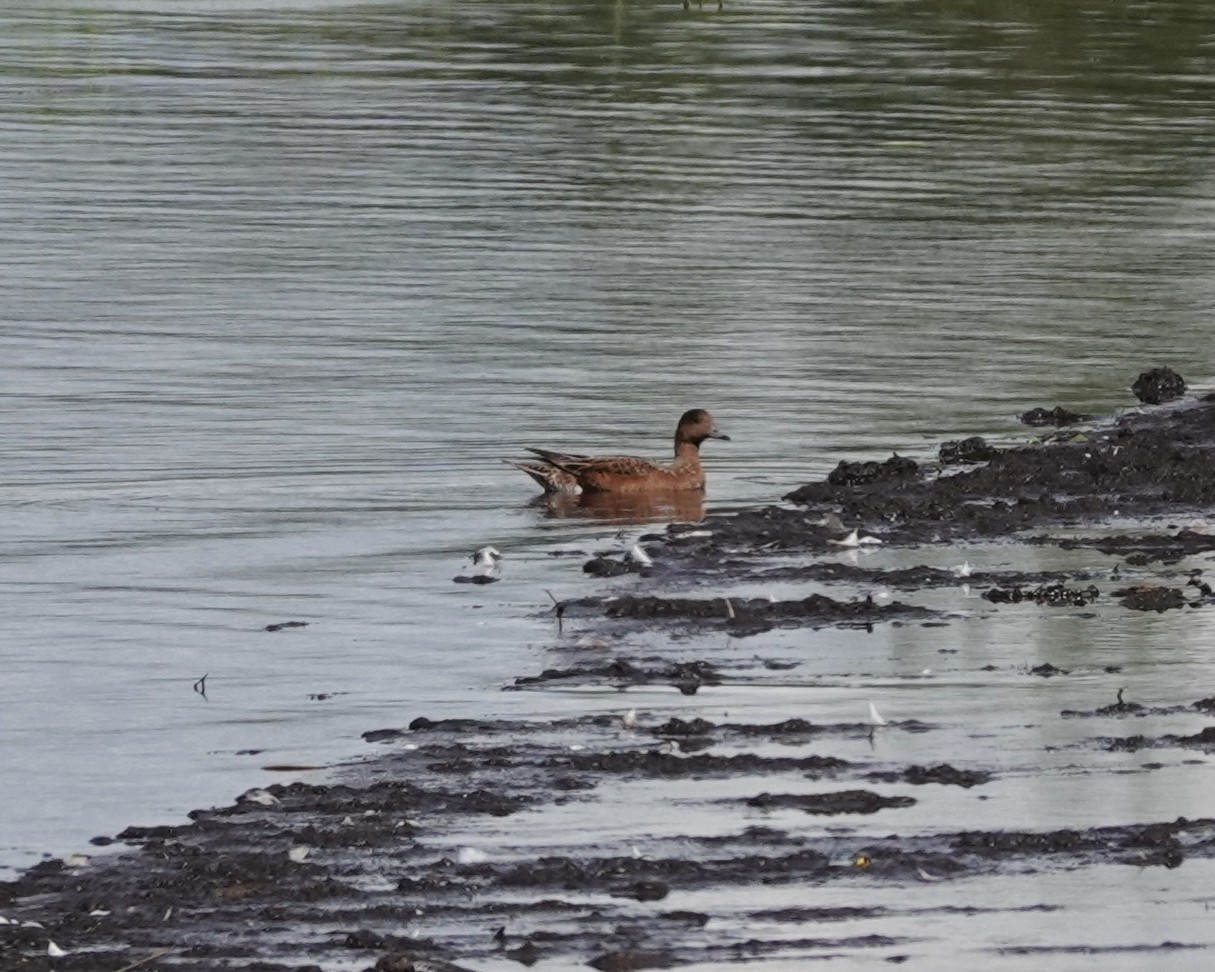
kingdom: Animalia
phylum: Chordata
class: Aves
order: Anseriformes
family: Anatidae
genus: Mareca
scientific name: Mareca penelope
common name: Eurasian wigeon
